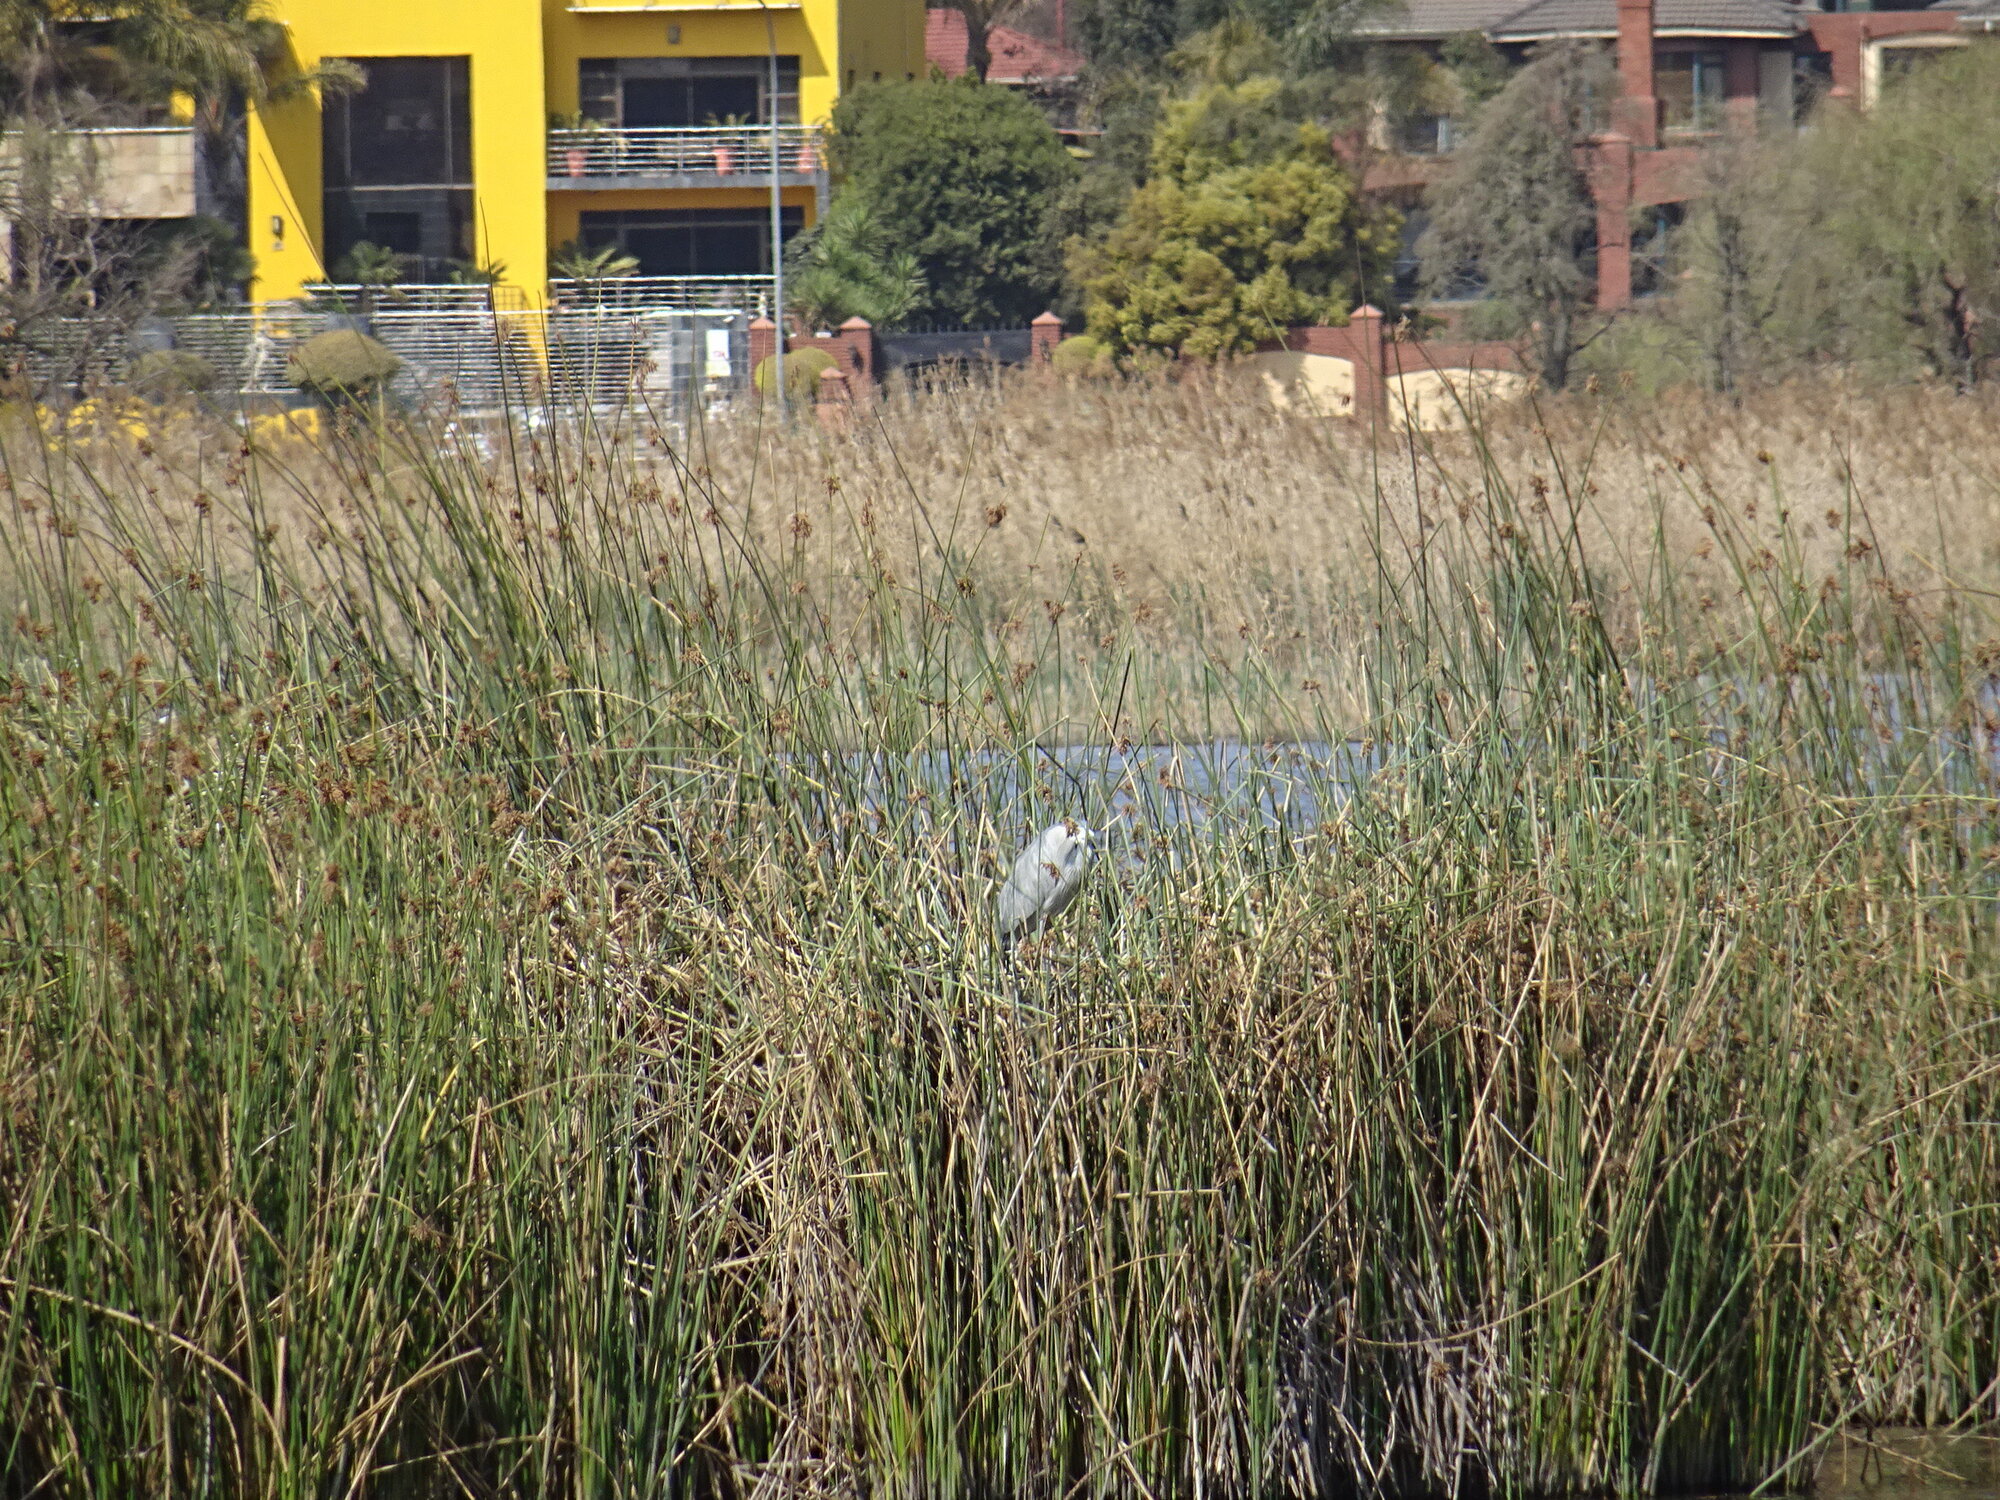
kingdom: Animalia
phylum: Chordata
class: Aves
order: Pelecaniformes
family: Ardeidae
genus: Ardea
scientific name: Ardea cinerea
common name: Grey heron
